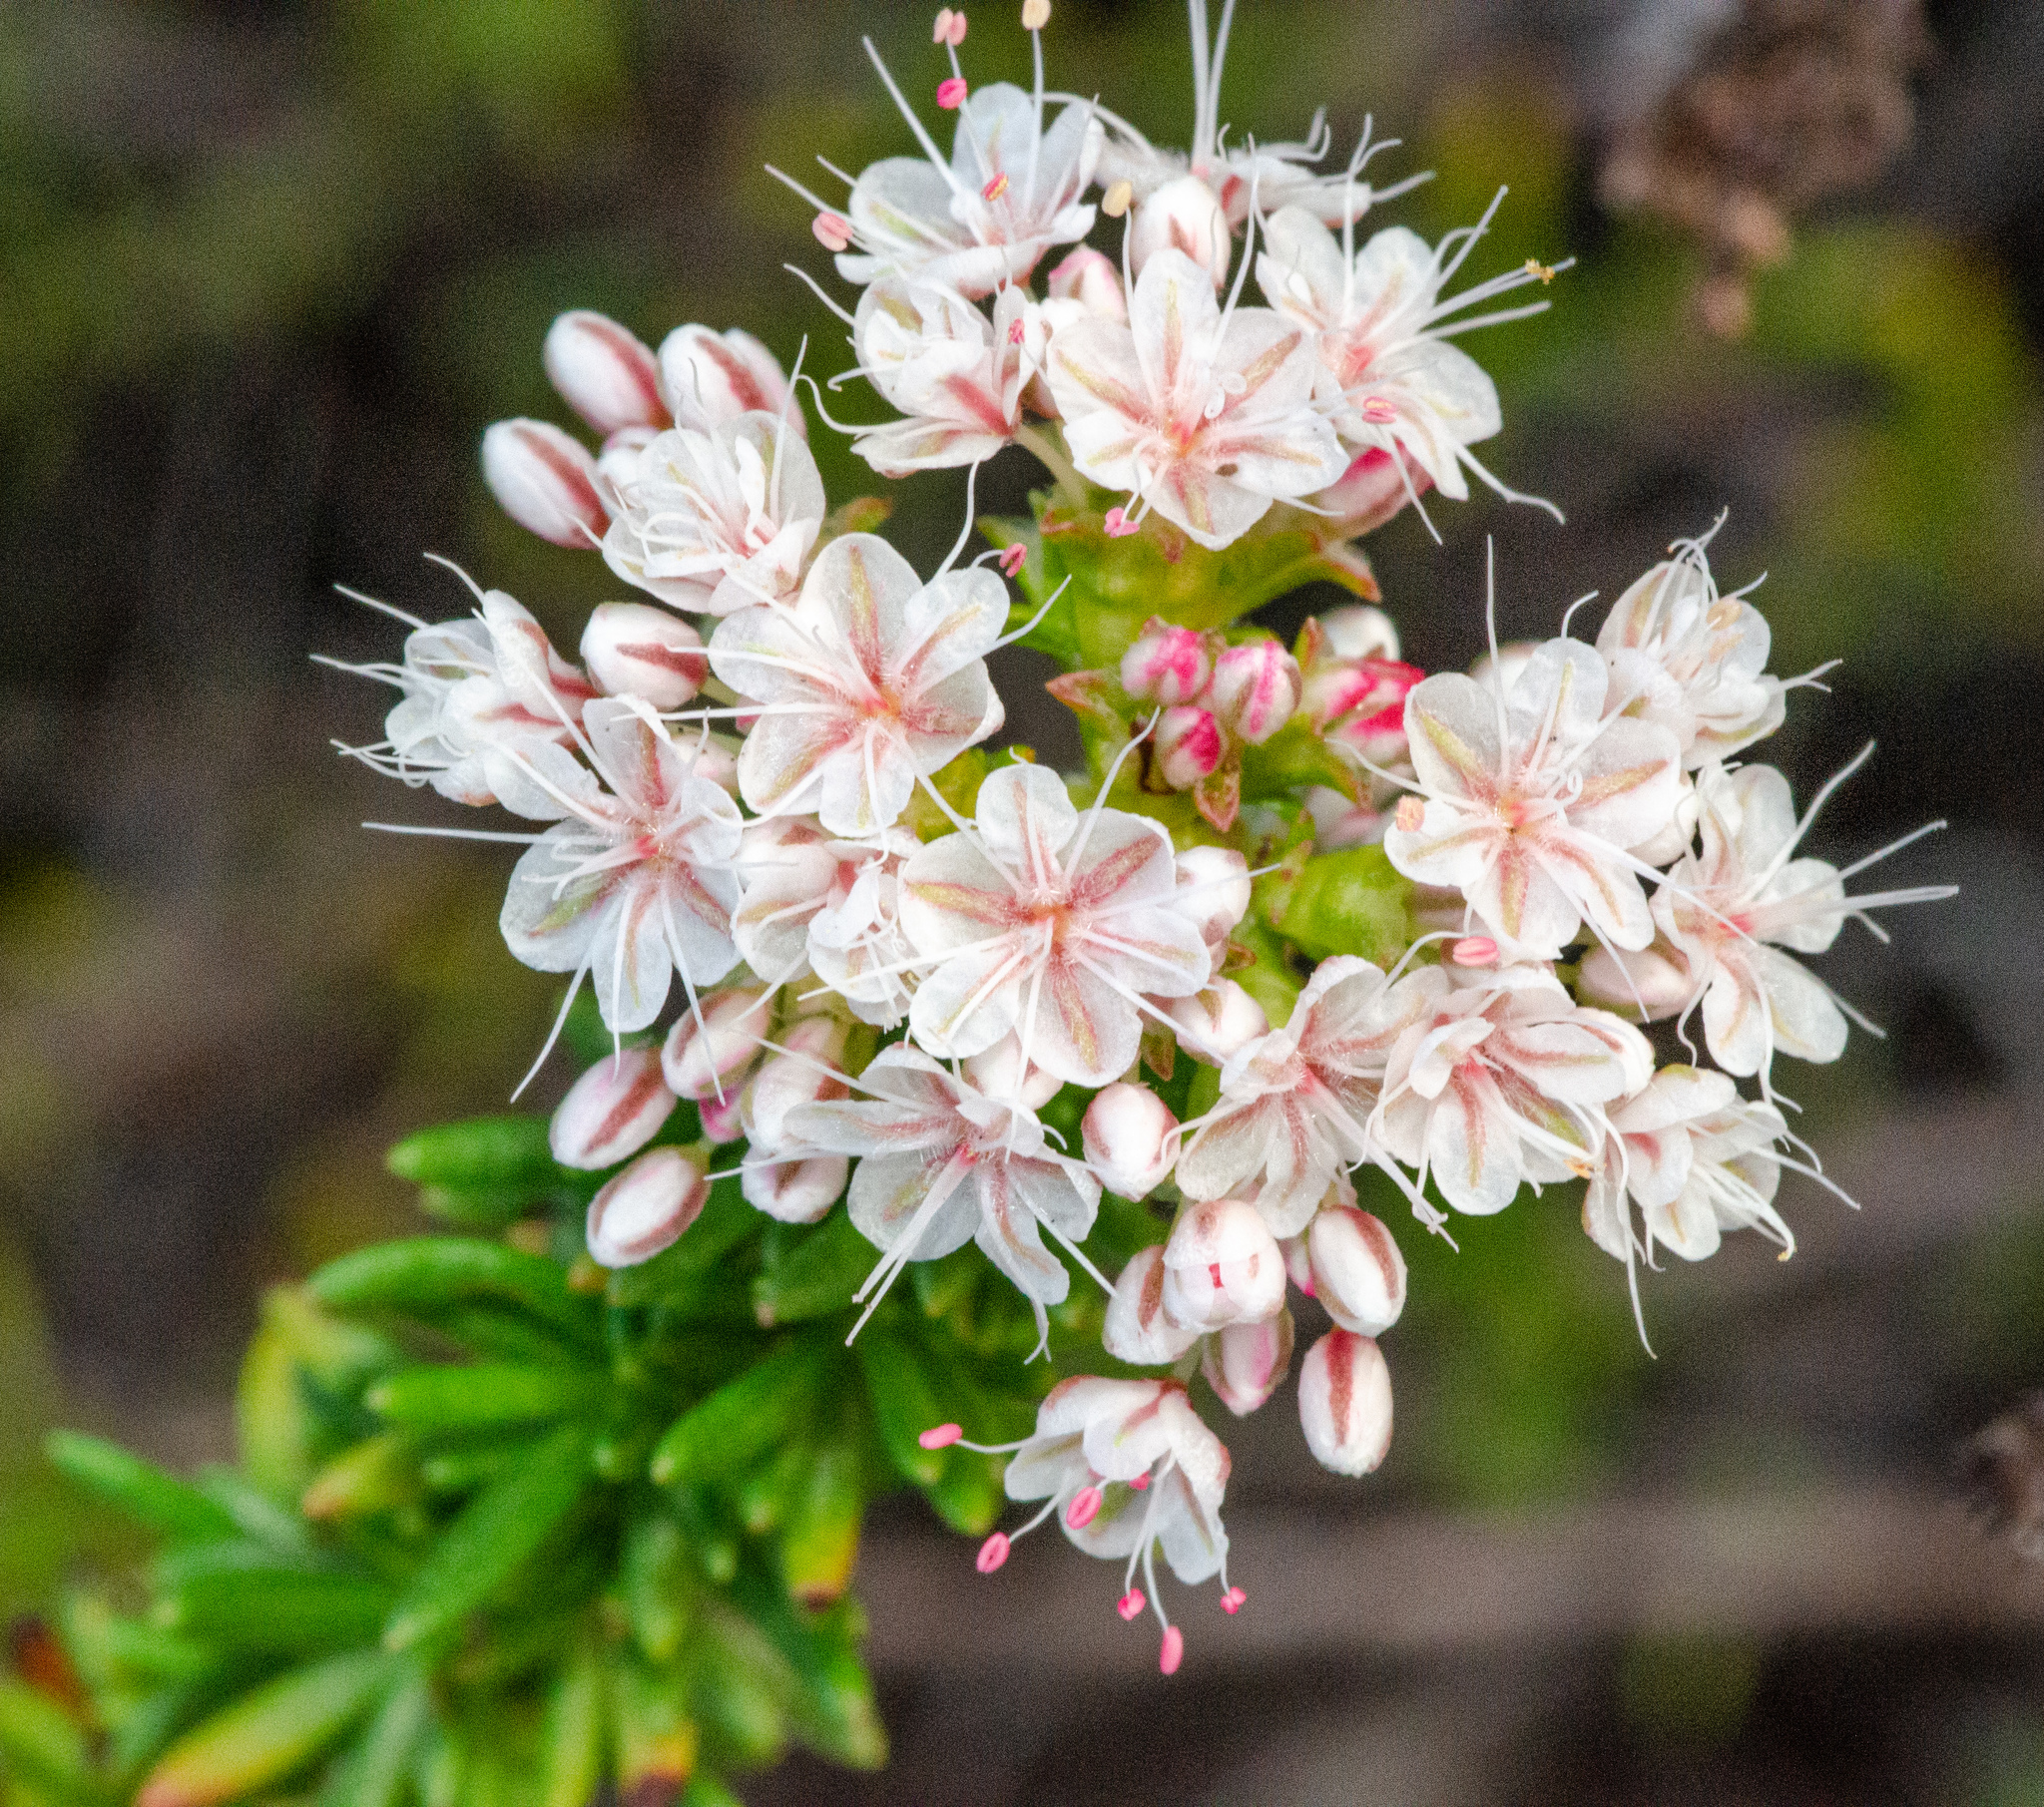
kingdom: Plantae
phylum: Tracheophyta
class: Magnoliopsida
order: Caryophyllales
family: Polygonaceae
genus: Eriogonum
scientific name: Eriogonum fasciculatum
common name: California wild buckwheat
